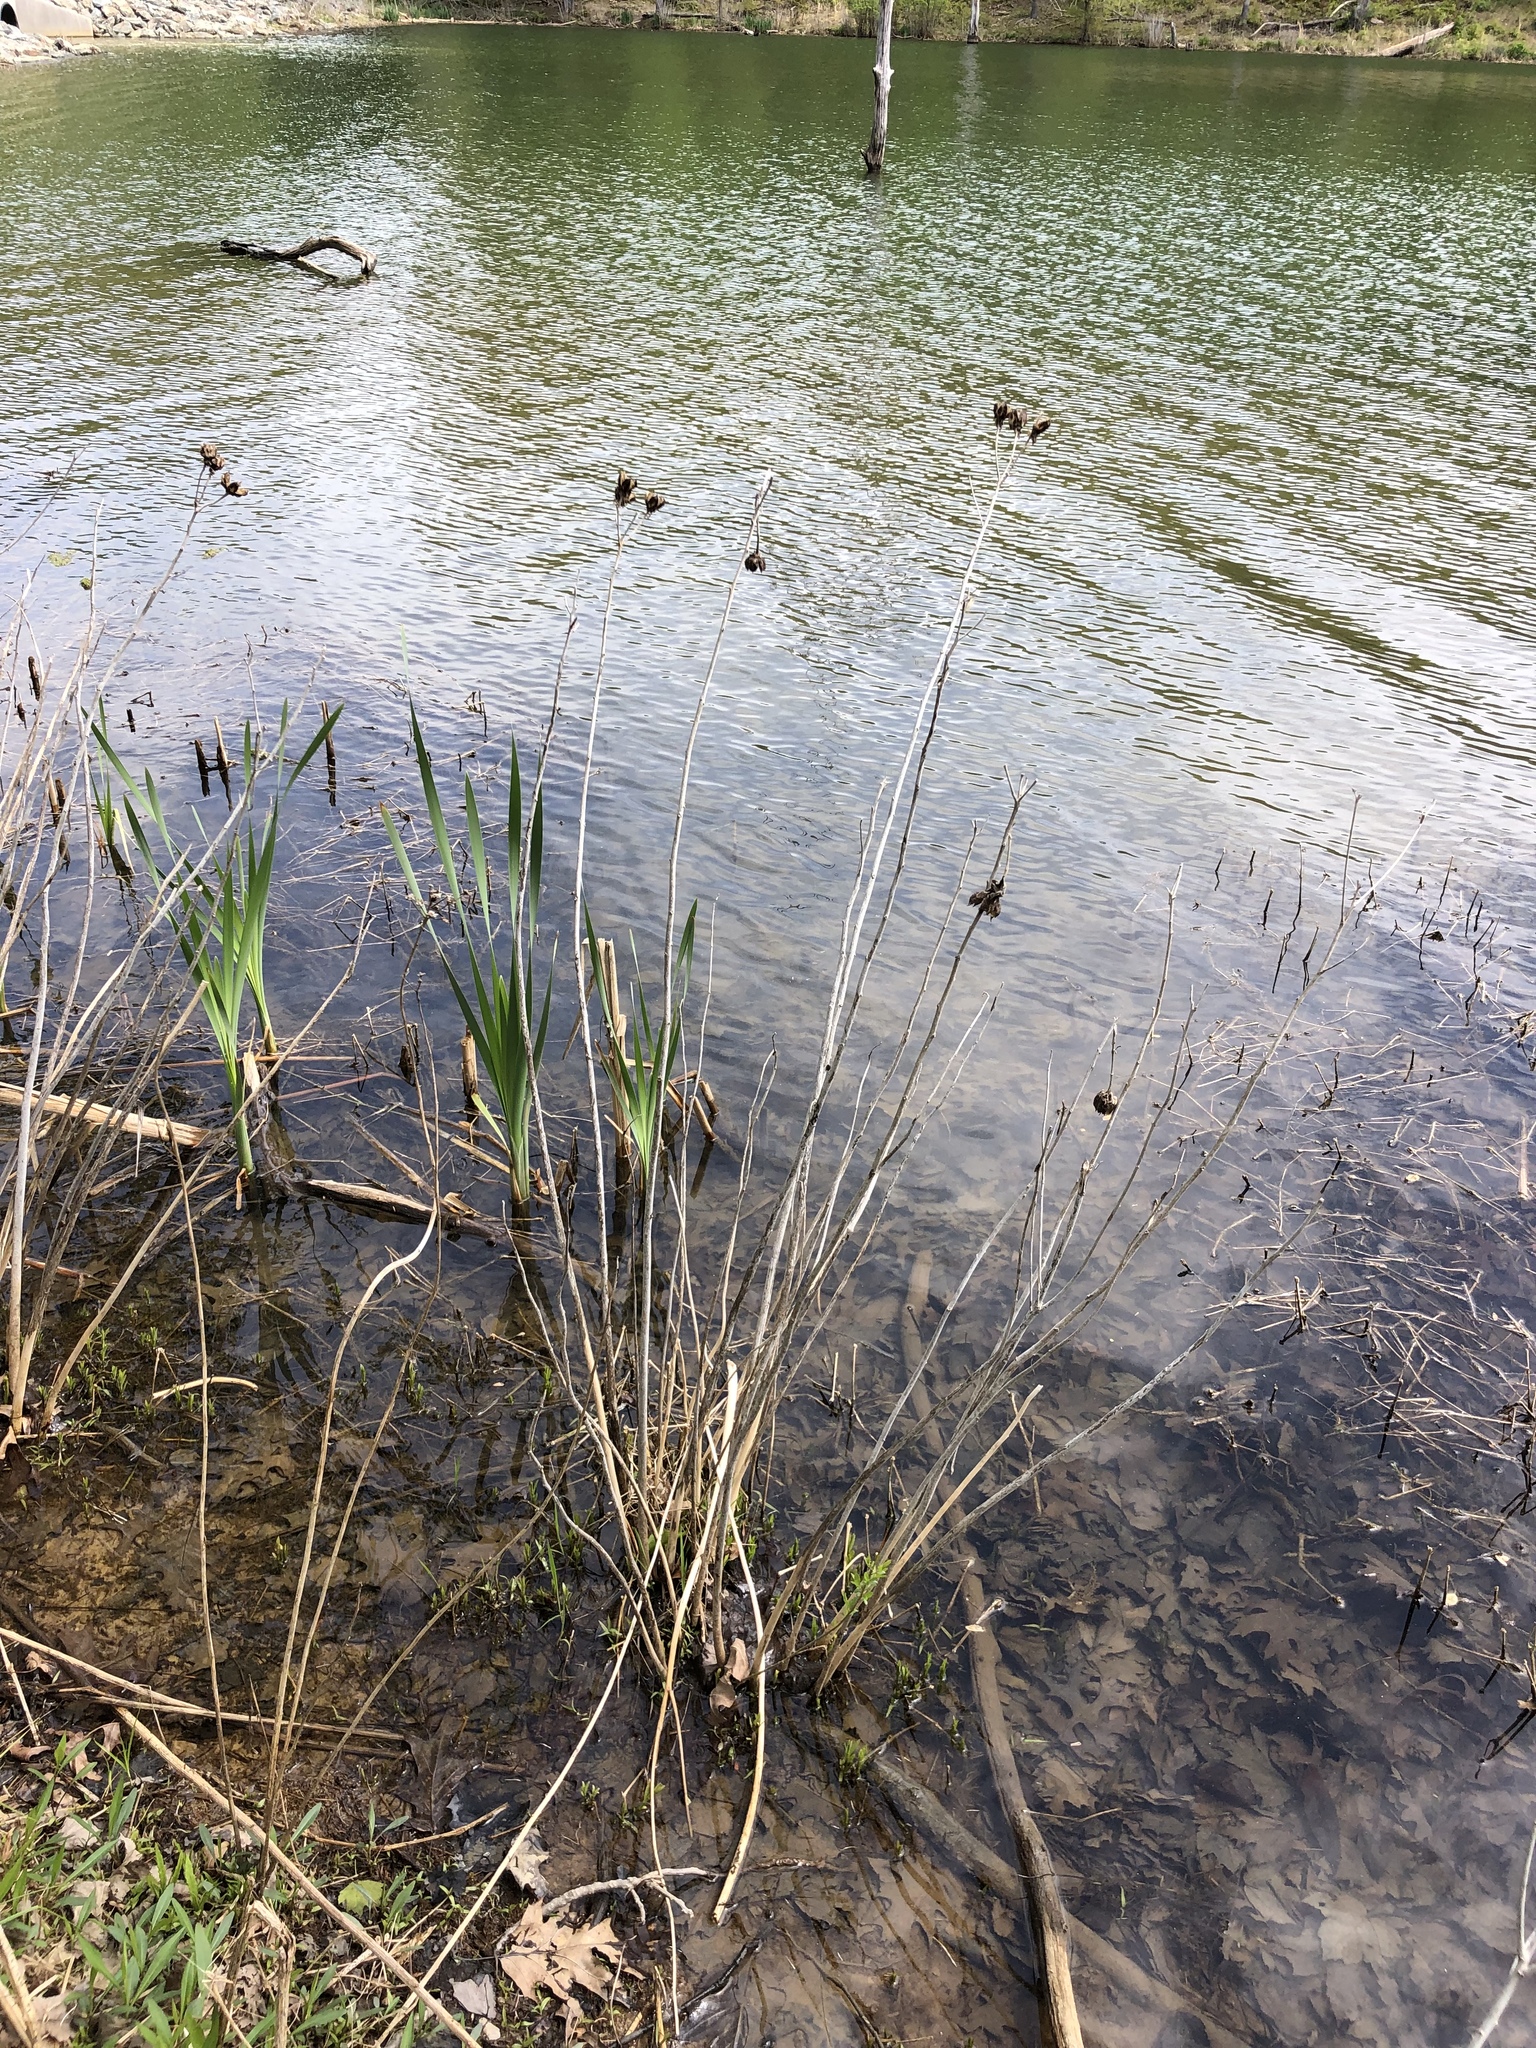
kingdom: Plantae
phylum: Tracheophyta
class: Magnoliopsida
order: Malvales
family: Malvaceae
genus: Hibiscus
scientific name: Hibiscus moscheutos
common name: Common rose-mallow
